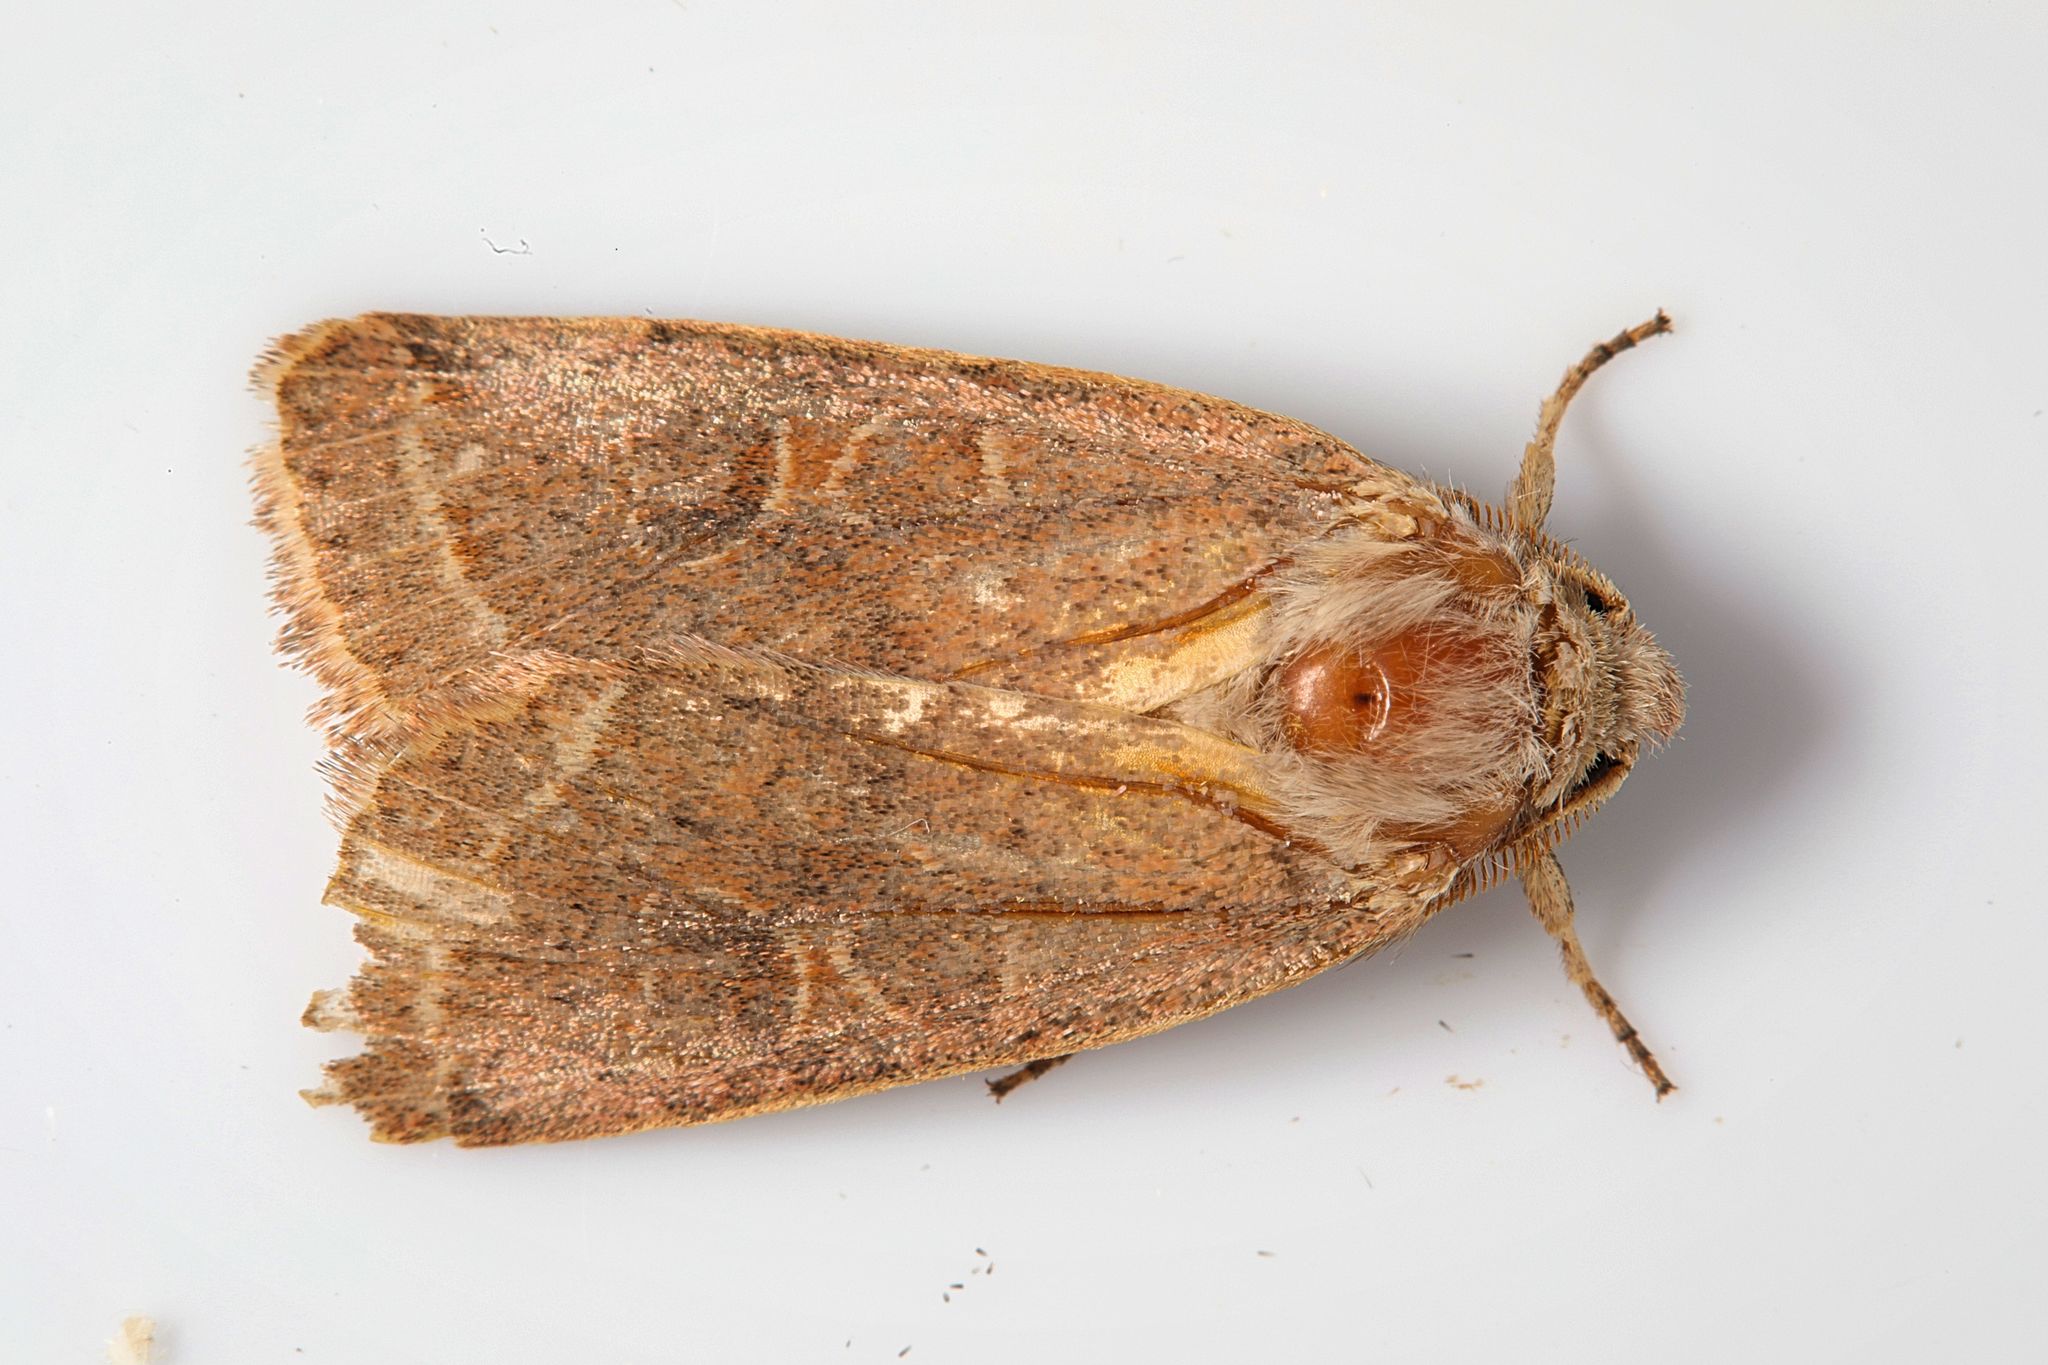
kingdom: Animalia
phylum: Arthropoda
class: Insecta
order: Lepidoptera
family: Noctuidae
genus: Orthosia
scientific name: Orthosia cerasi
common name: Common quaker
